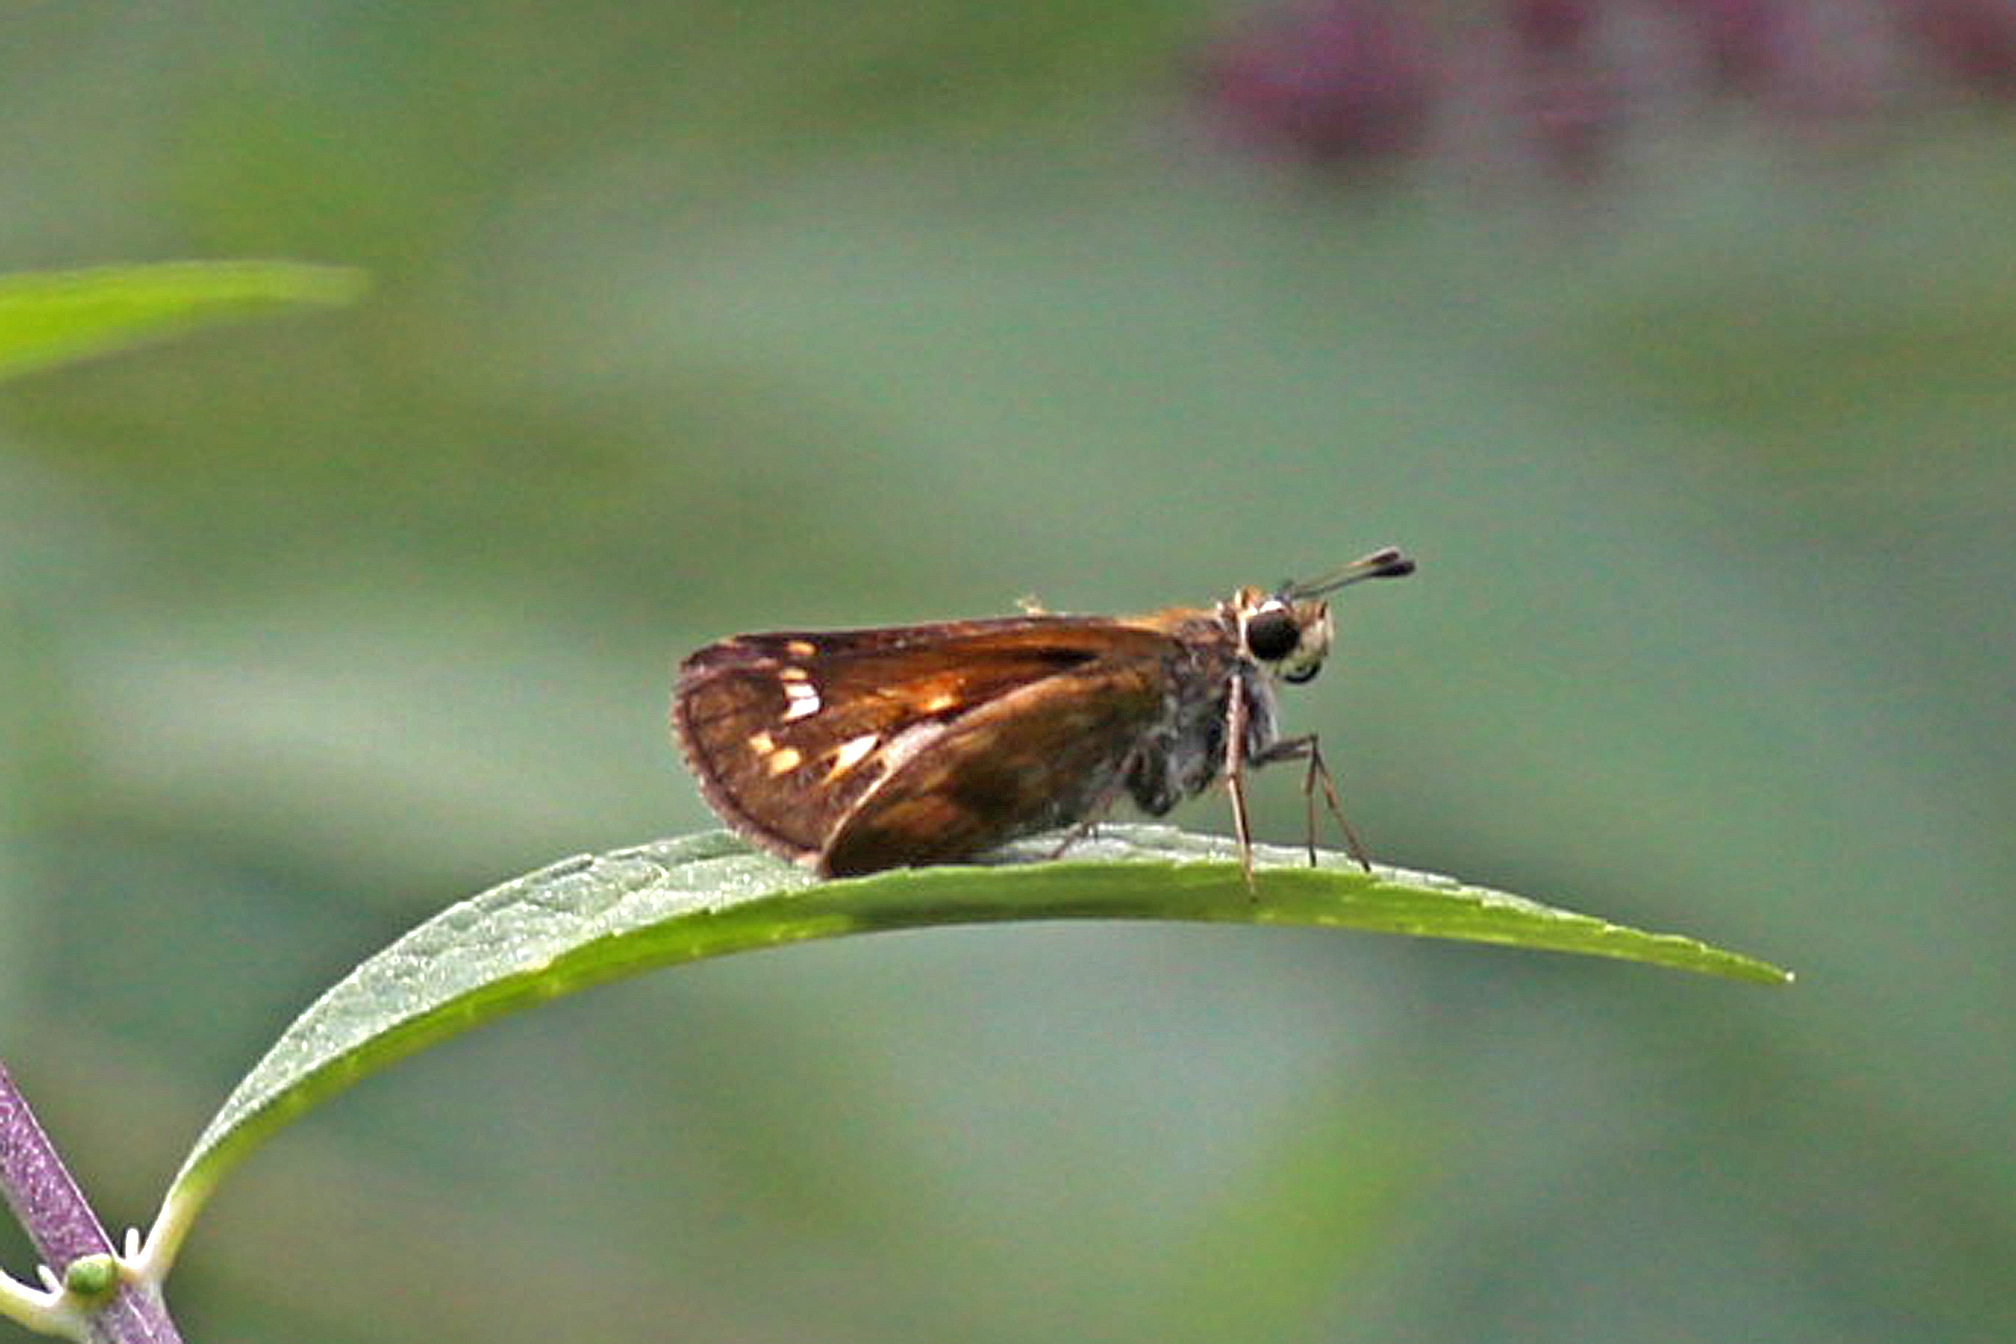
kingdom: Animalia
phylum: Arthropoda
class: Insecta
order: Lepidoptera
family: Hesperiidae
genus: Atalopedes
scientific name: Atalopedes
